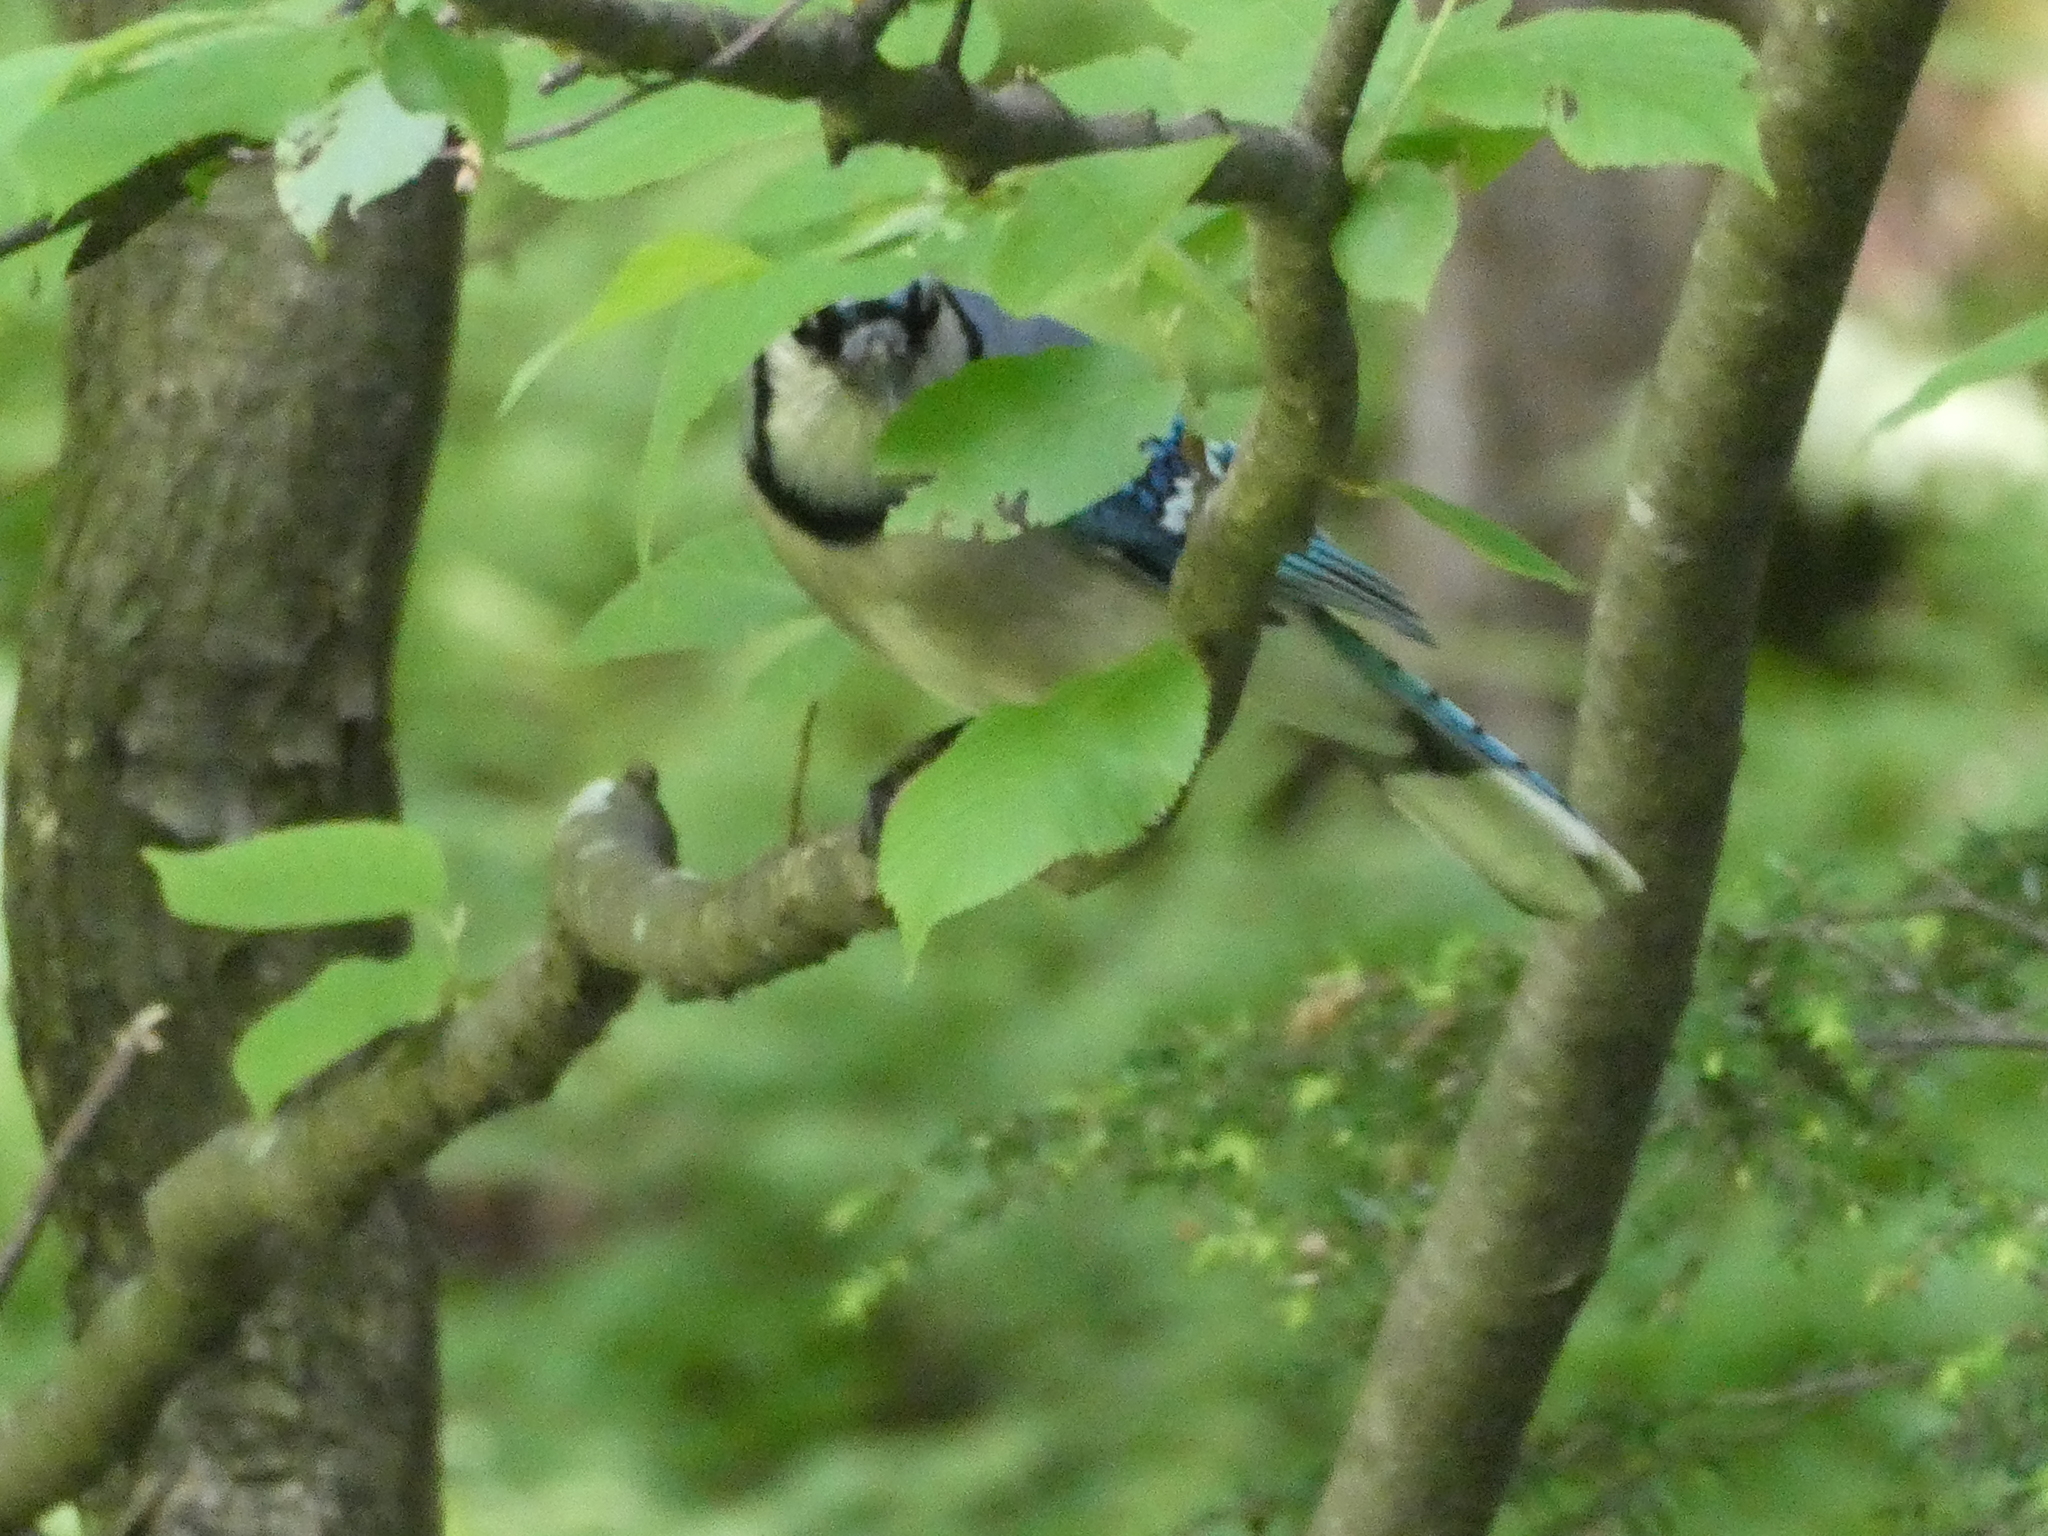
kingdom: Animalia
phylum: Chordata
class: Aves
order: Passeriformes
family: Corvidae
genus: Cyanocitta
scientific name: Cyanocitta cristata
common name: Blue jay
